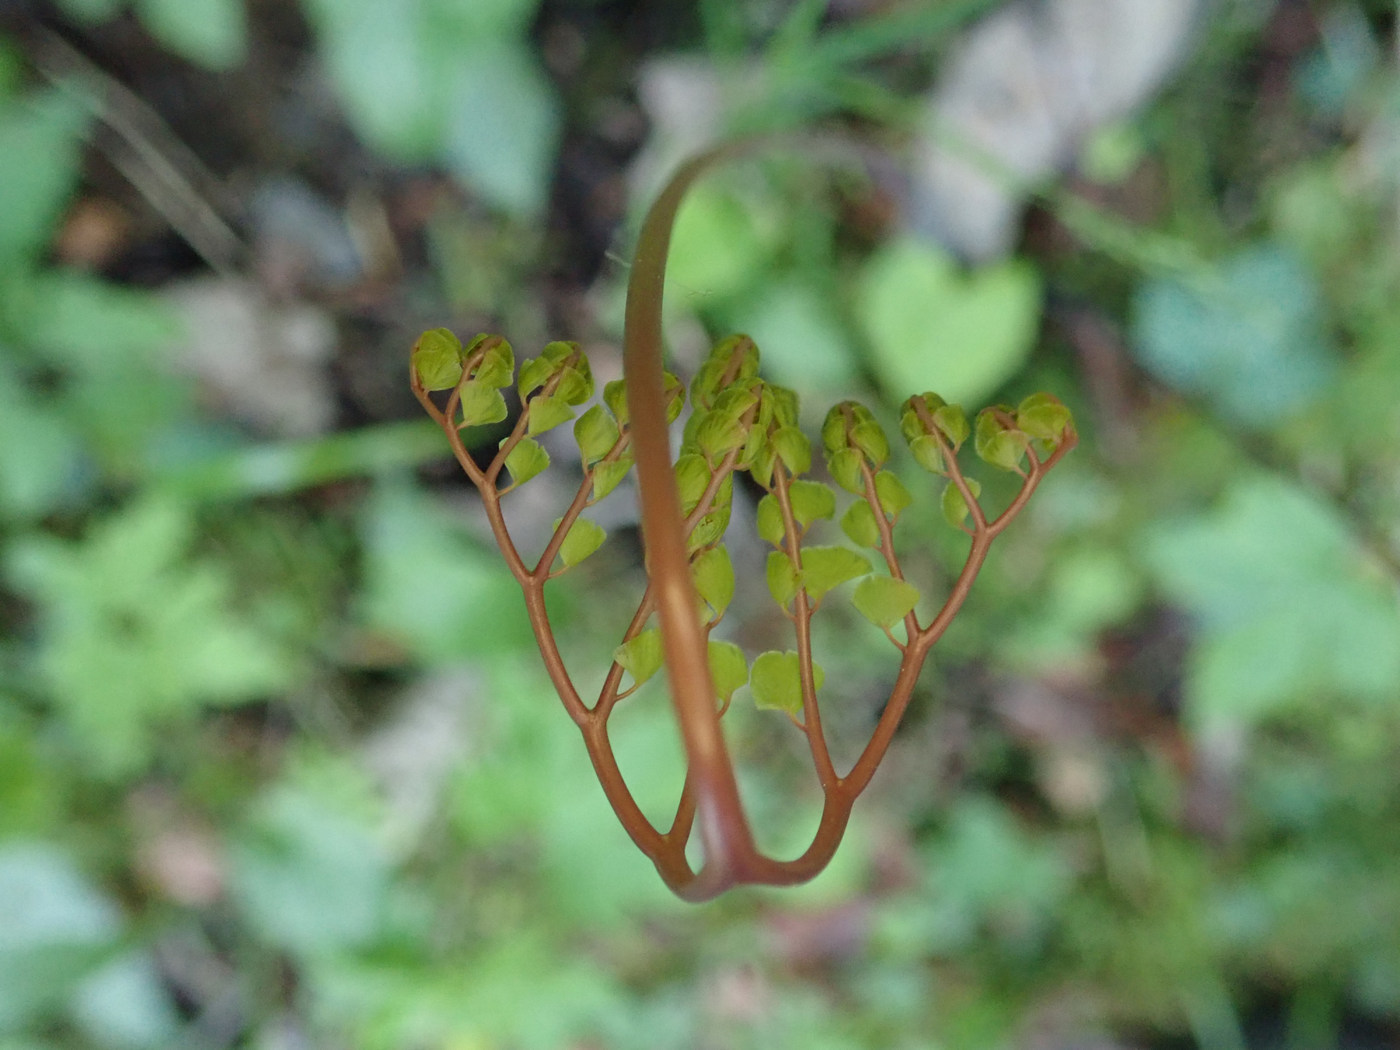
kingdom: Plantae
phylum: Tracheophyta
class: Polypodiopsida
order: Polypodiales
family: Pteridaceae
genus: Adiantum
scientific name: Adiantum pedatum
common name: Five-finger fern
